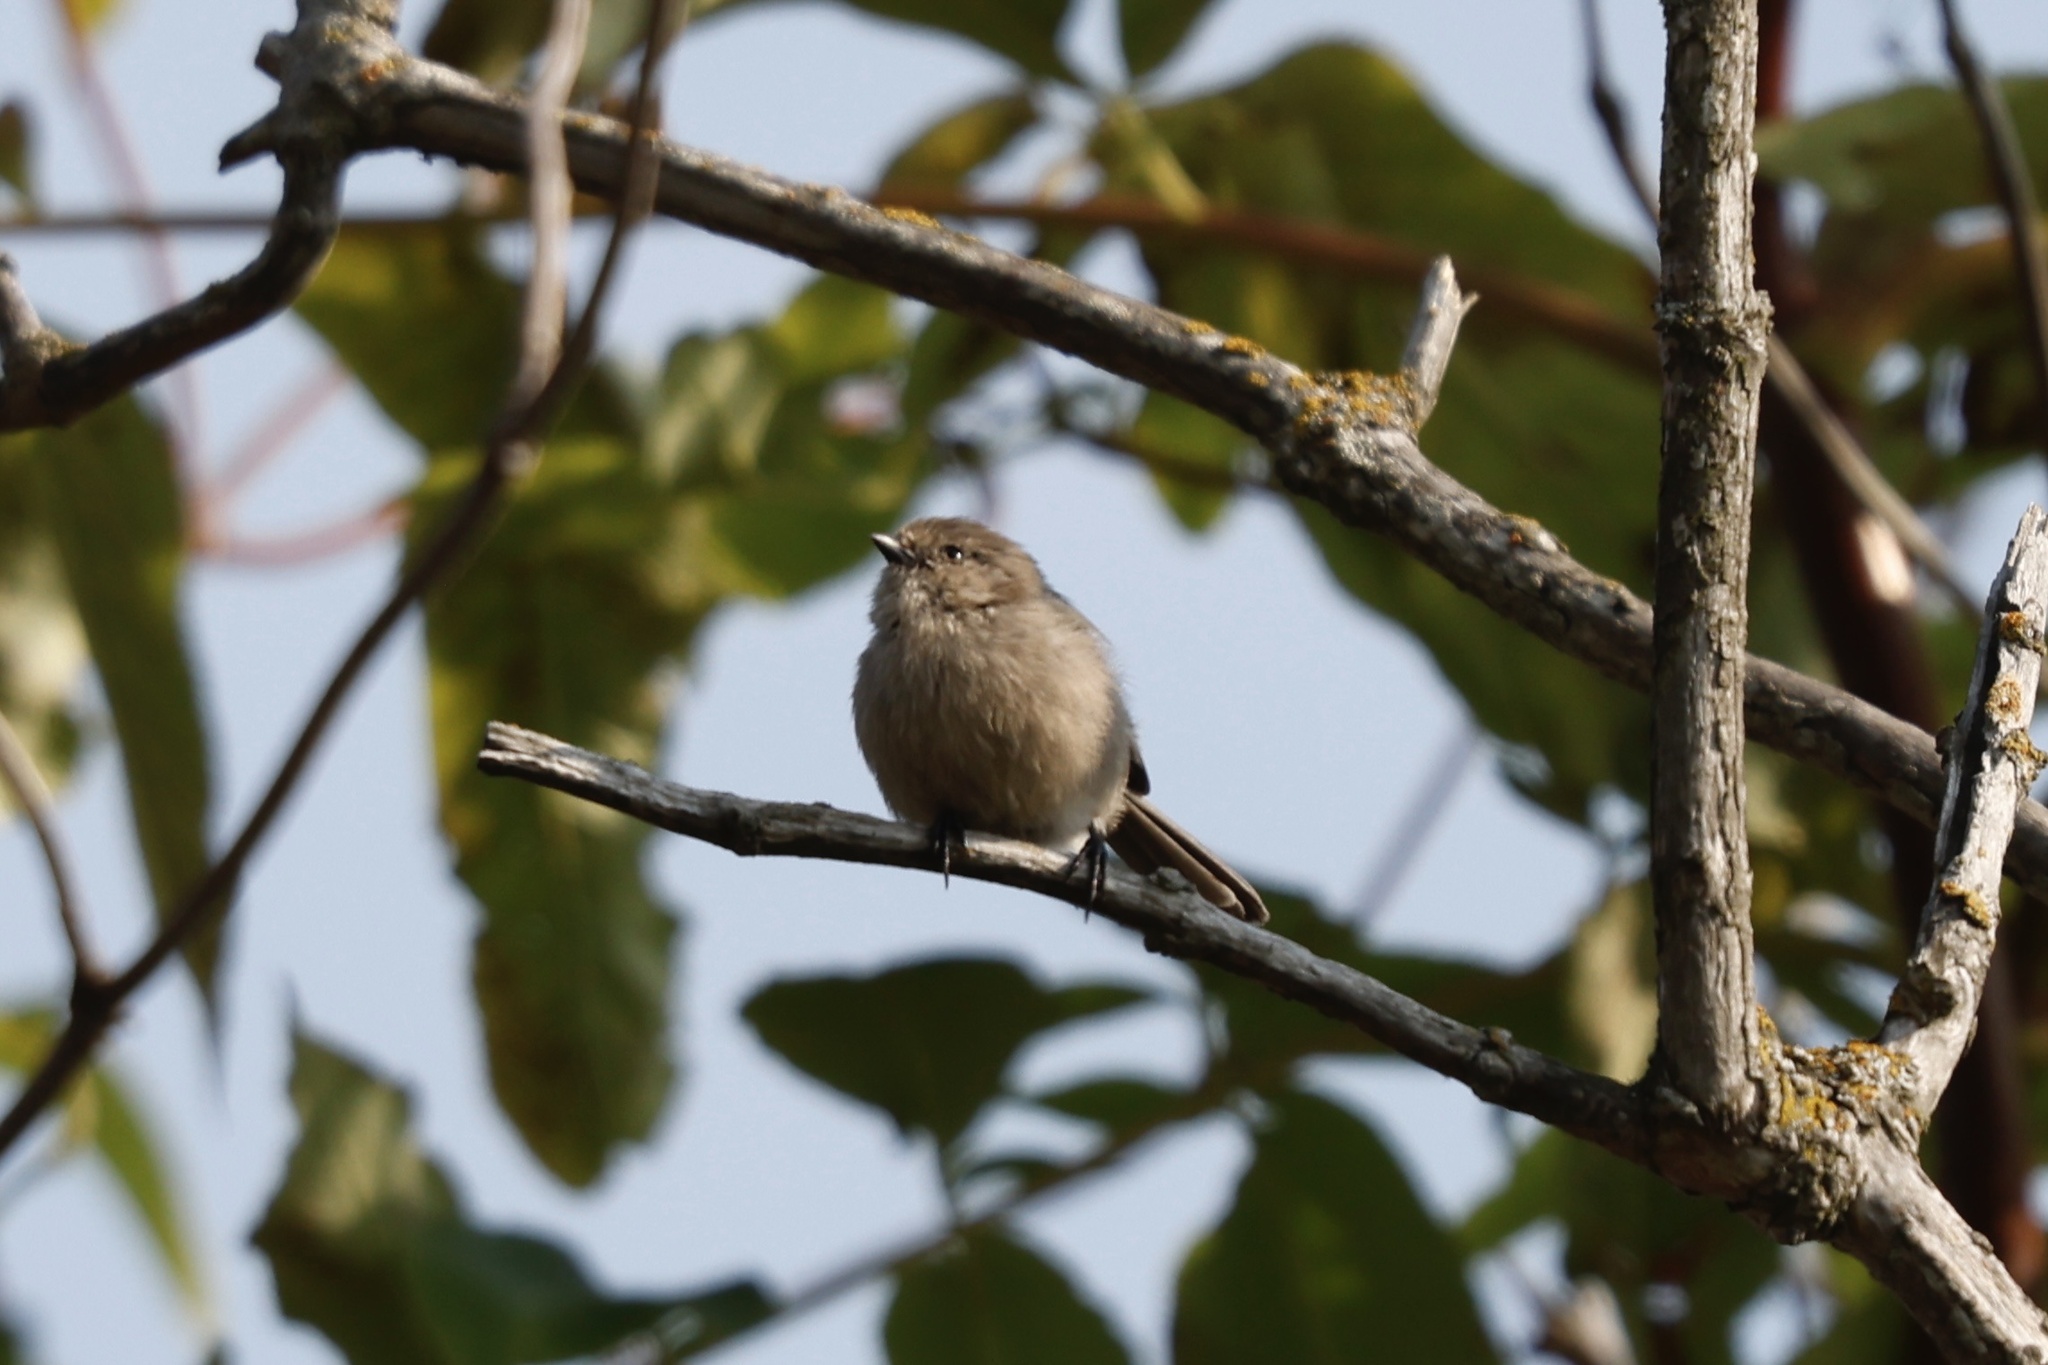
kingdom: Animalia
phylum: Chordata
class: Aves
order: Passeriformes
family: Aegithalidae
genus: Psaltriparus
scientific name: Psaltriparus minimus
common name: American bushtit
